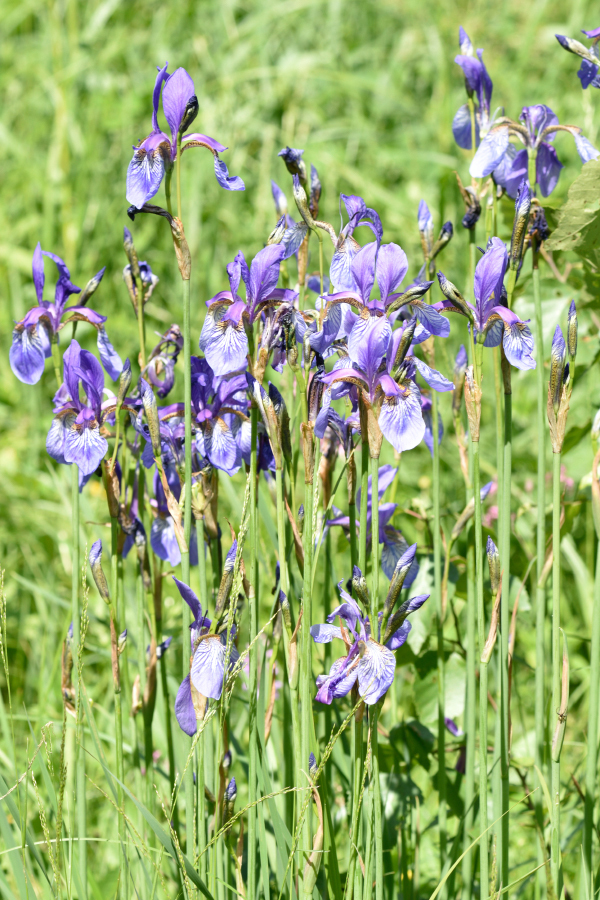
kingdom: Plantae
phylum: Tracheophyta
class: Liliopsida
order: Asparagales
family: Iridaceae
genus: Iris
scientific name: Iris sibirica
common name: Siberian iris
